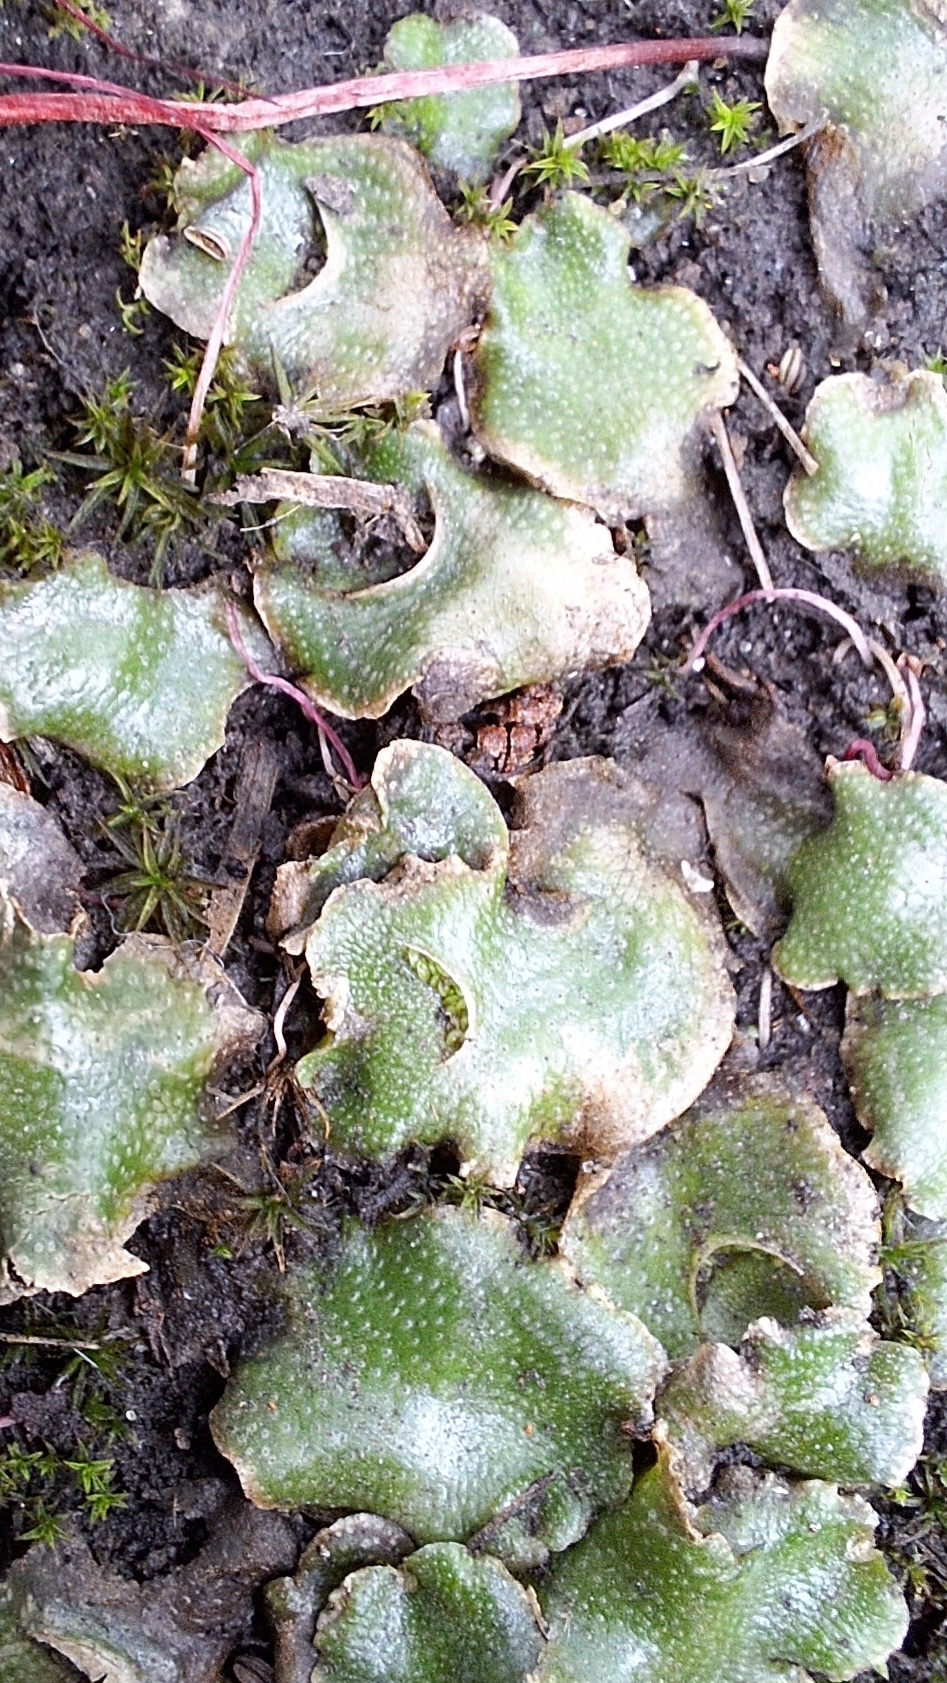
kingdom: Plantae
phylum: Marchantiophyta
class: Marchantiopsida
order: Lunulariales
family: Lunulariaceae
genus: Lunularia
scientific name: Lunularia cruciata
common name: Crescent-cup liverwort
